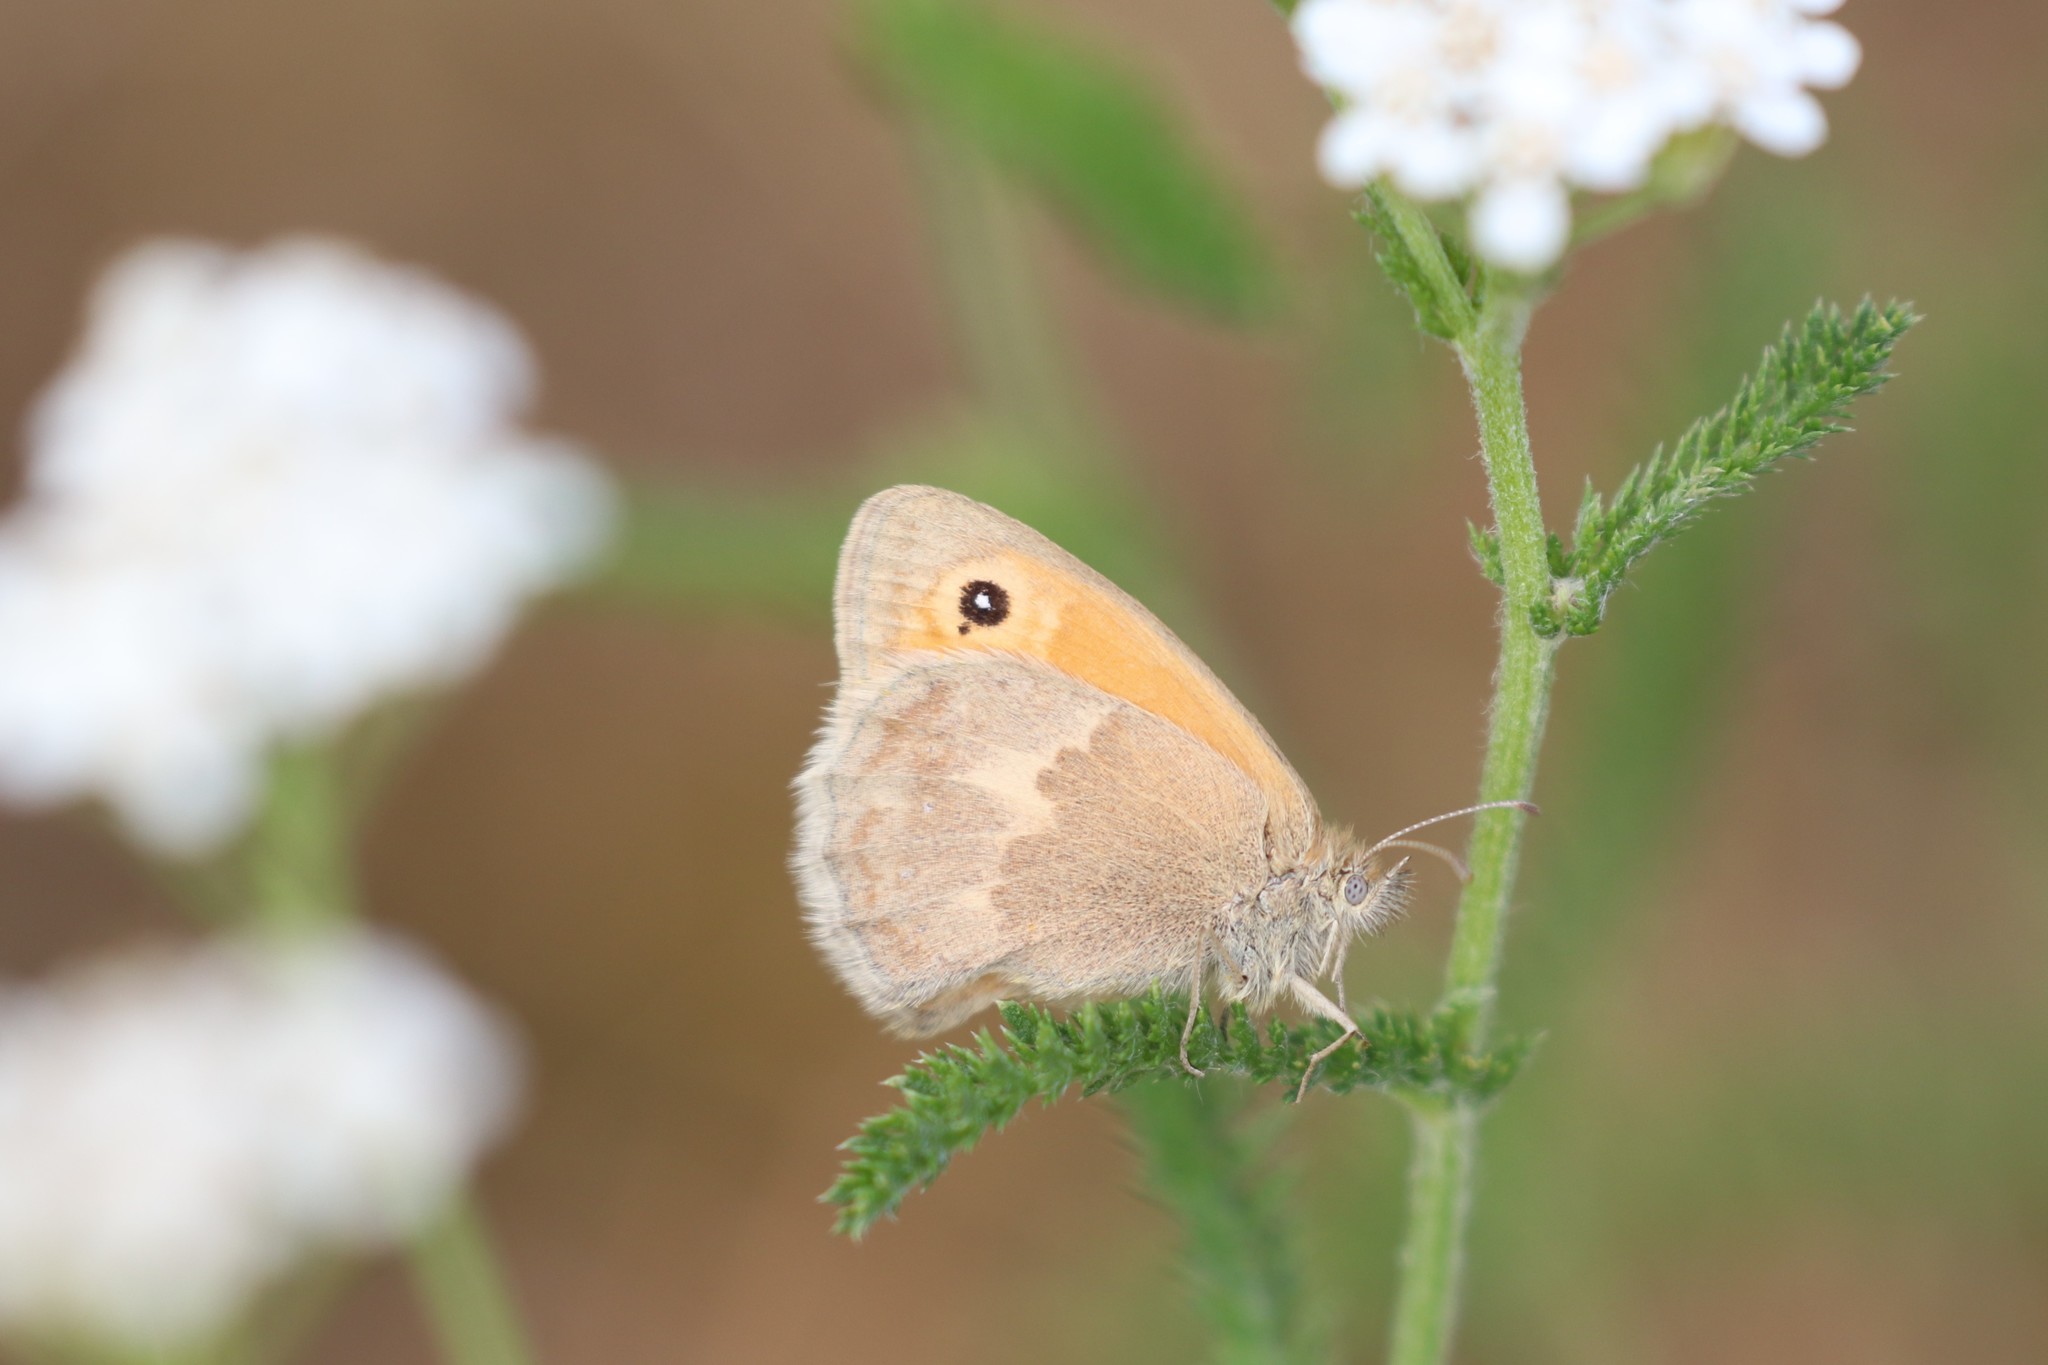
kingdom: Animalia
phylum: Arthropoda
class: Insecta
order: Lepidoptera
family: Nymphalidae
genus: Coenonympha
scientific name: Coenonympha pamphilus
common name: Small heath
